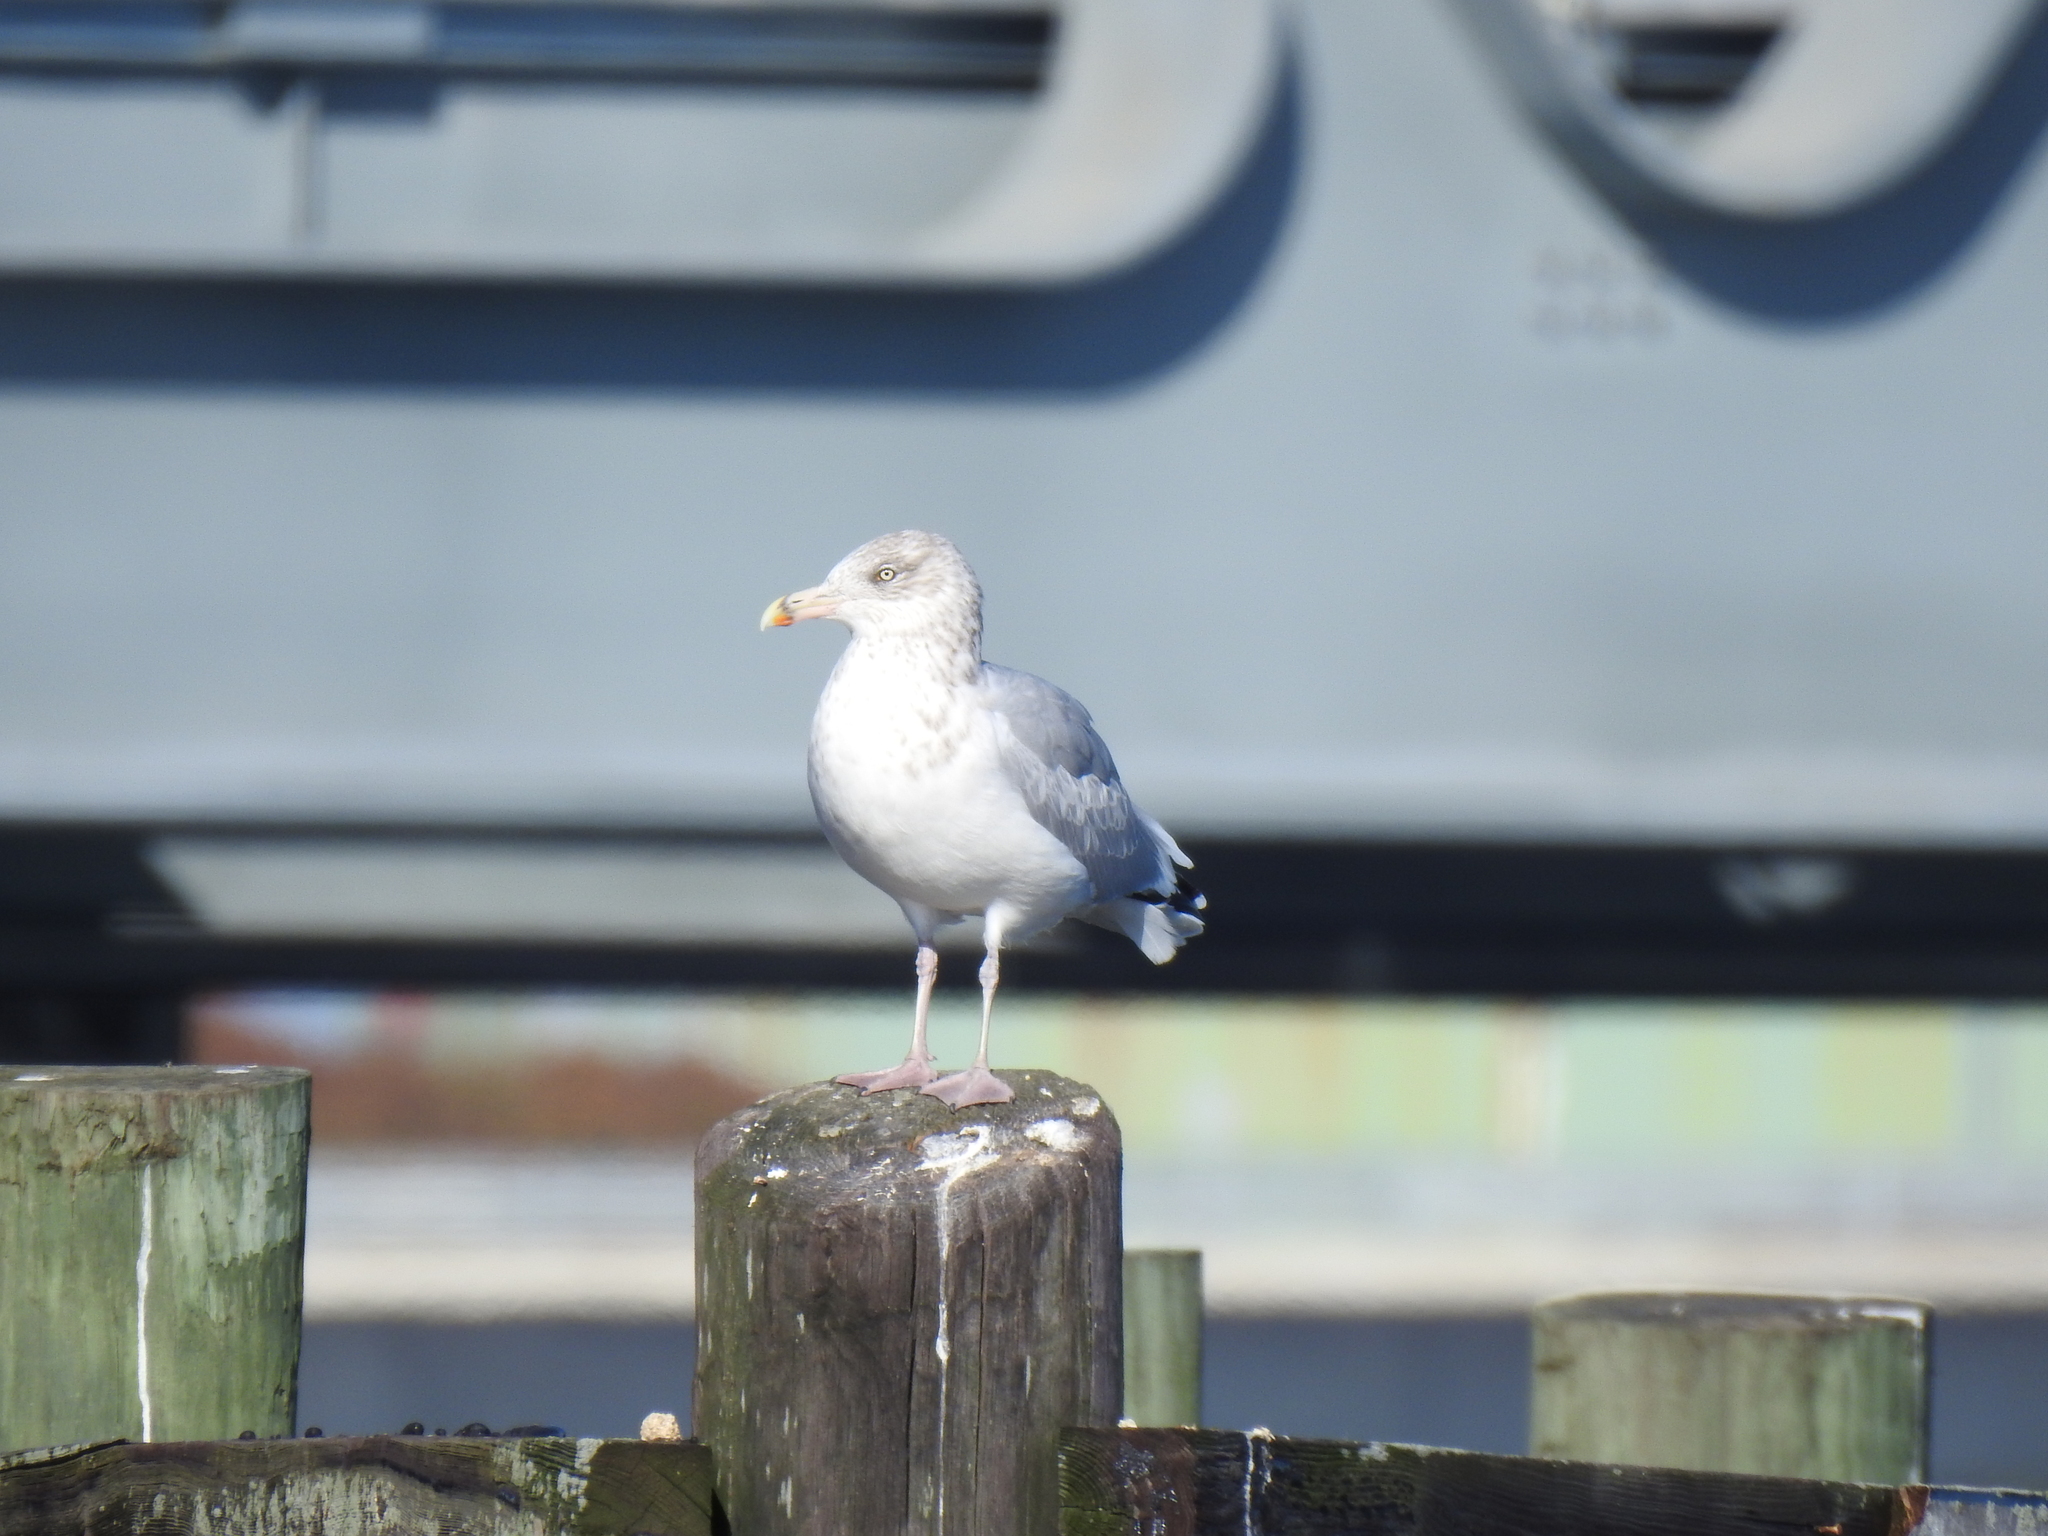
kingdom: Animalia
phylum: Chordata
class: Aves
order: Charadriiformes
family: Laridae
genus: Larus
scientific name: Larus argentatus
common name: Herring gull
